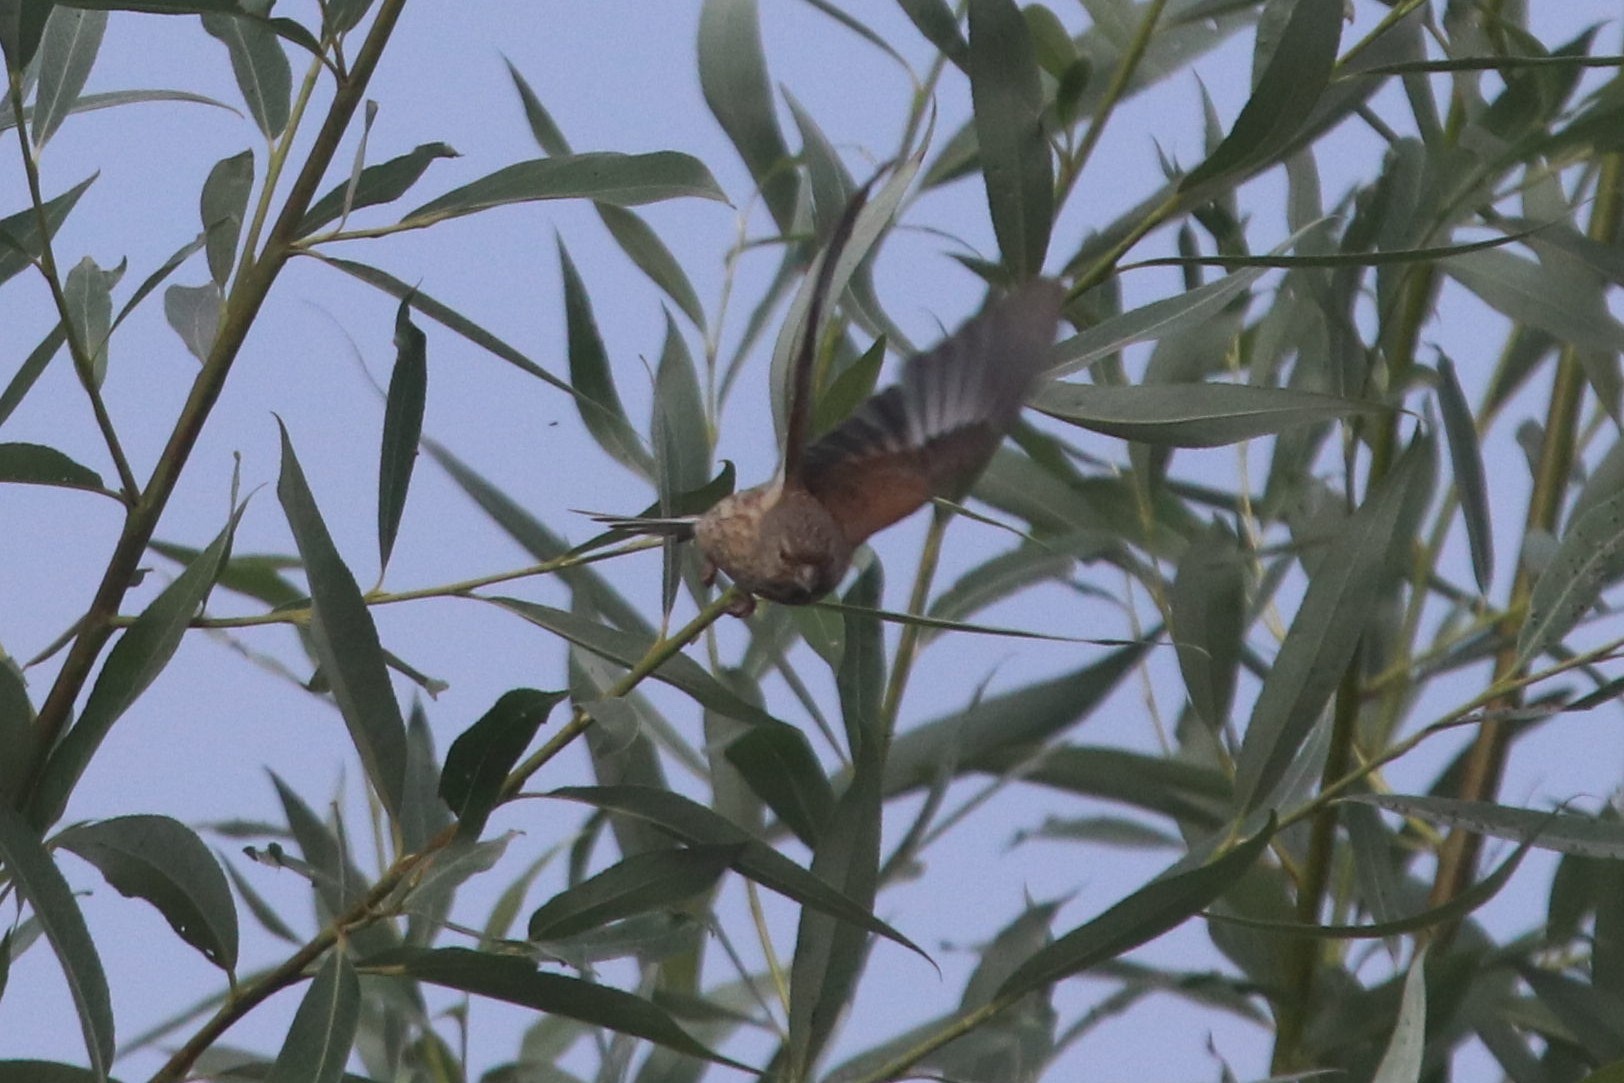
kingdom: Animalia
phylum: Chordata
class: Aves
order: Passeriformes
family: Fringillidae
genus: Linaria
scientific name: Linaria cannabina
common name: Common linnet
